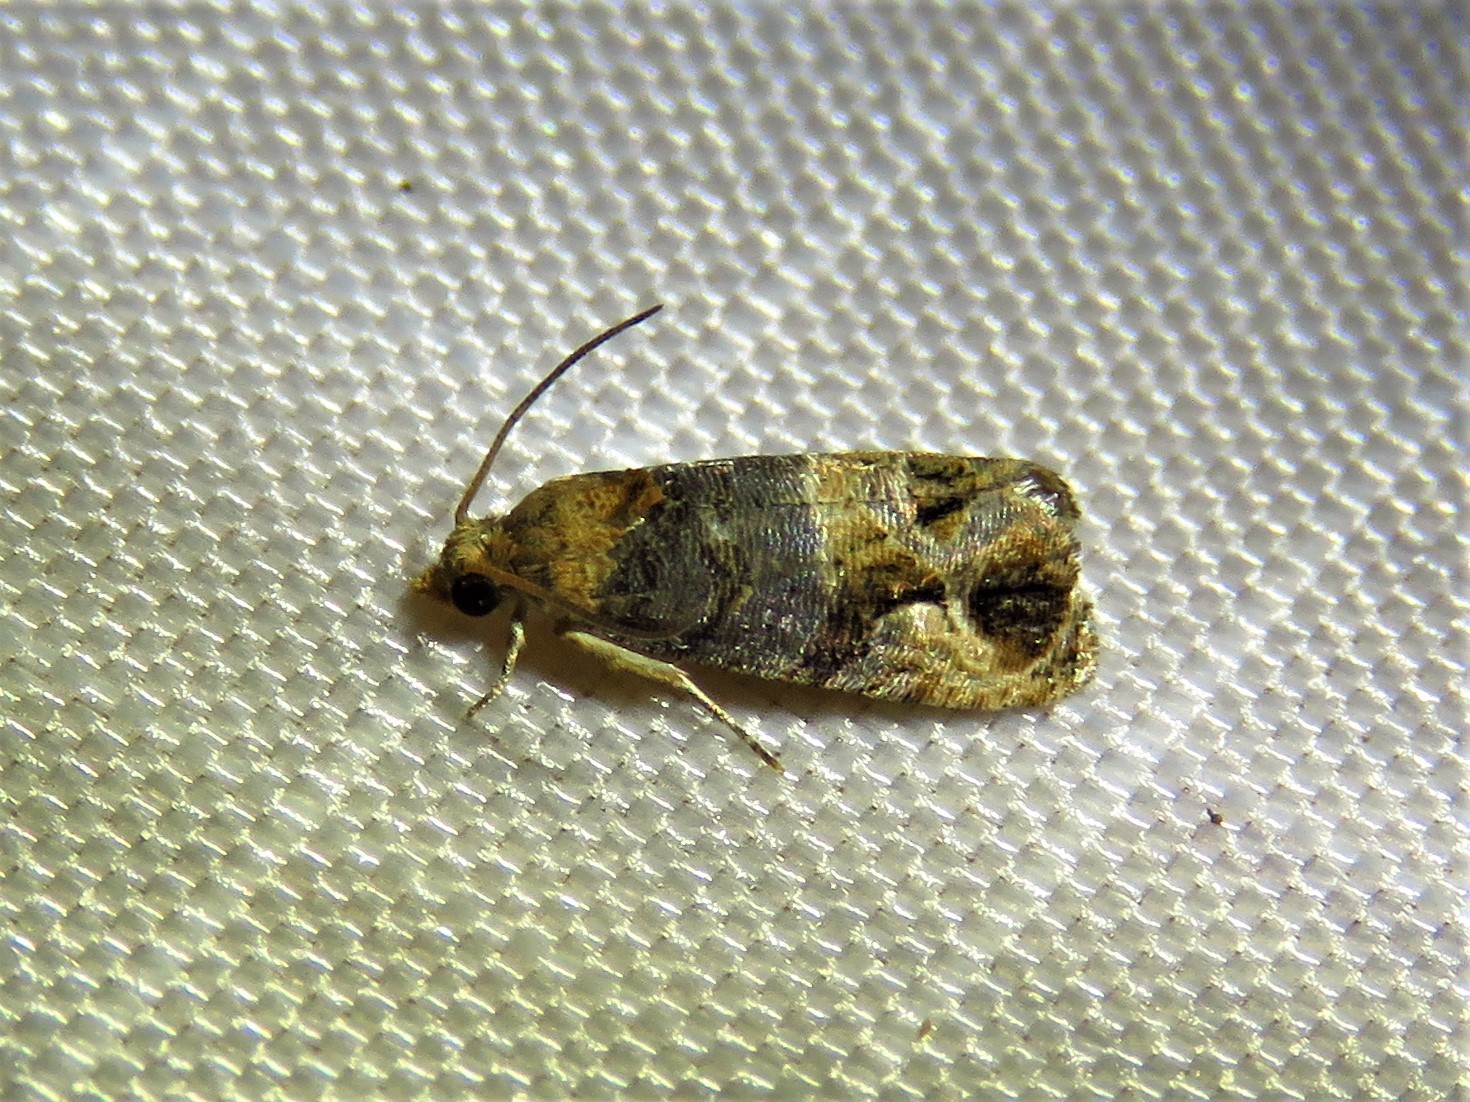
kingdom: Animalia
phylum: Arthropoda
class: Insecta
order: Lepidoptera
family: Tortricidae
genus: Paralobesia
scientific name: Paralobesia viteana
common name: Grape berry moth
